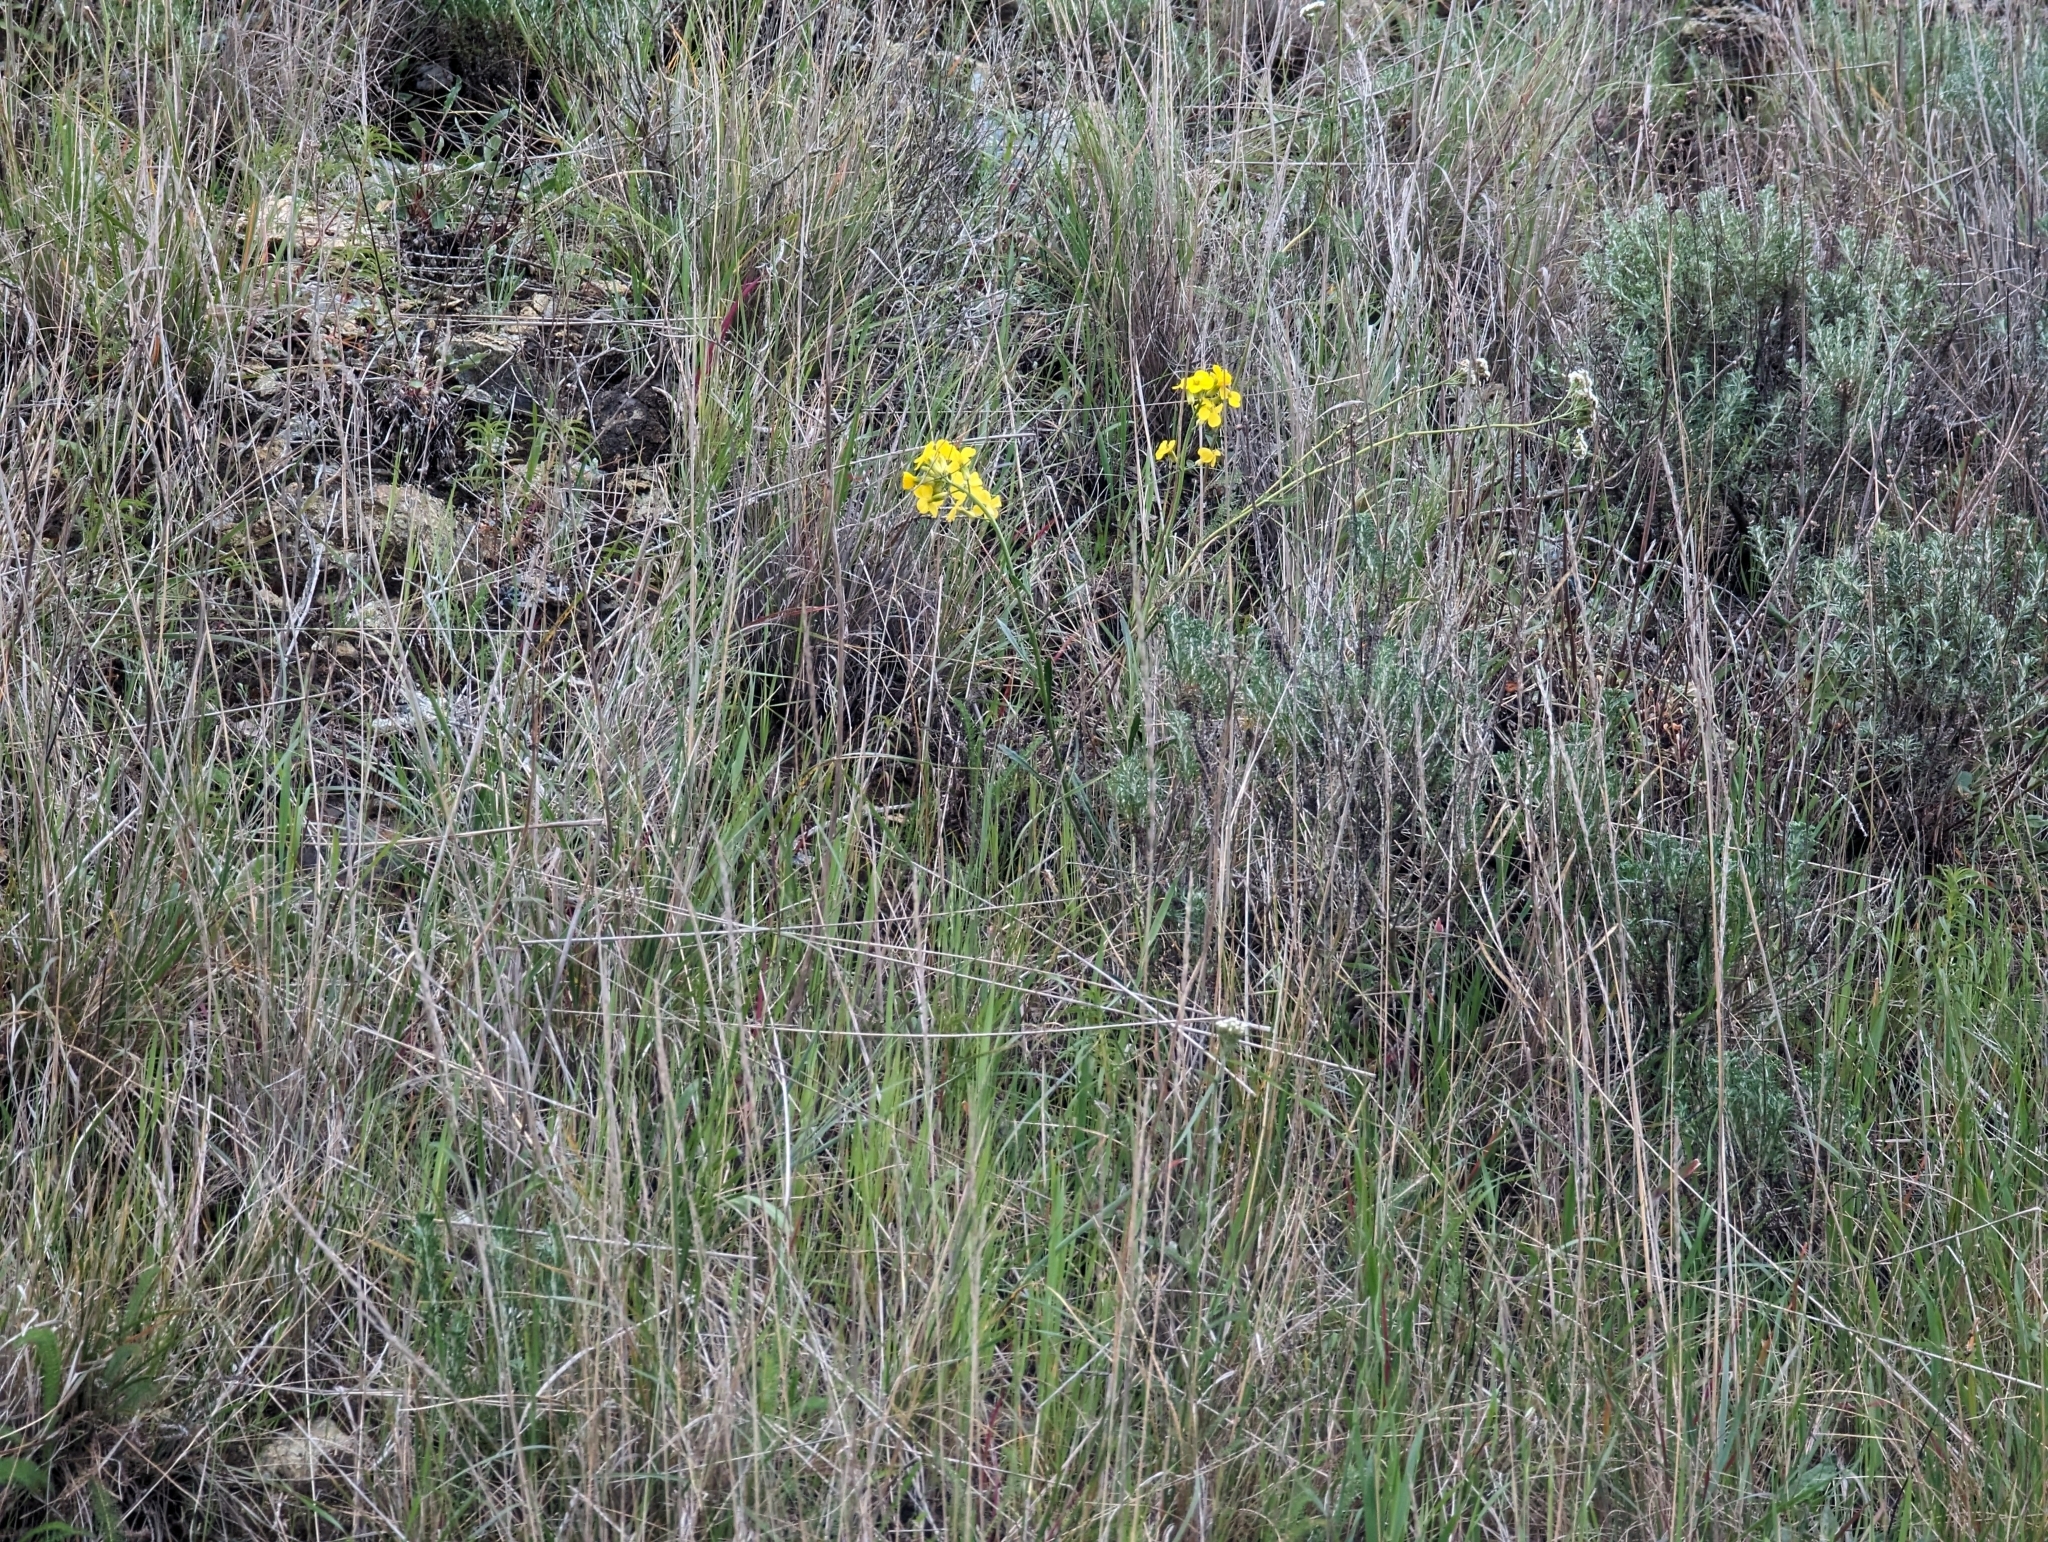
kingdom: Plantae
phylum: Tracheophyta
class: Magnoliopsida
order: Brassicales
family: Brassicaceae
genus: Erysimum
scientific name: Erysimum franciscanum
